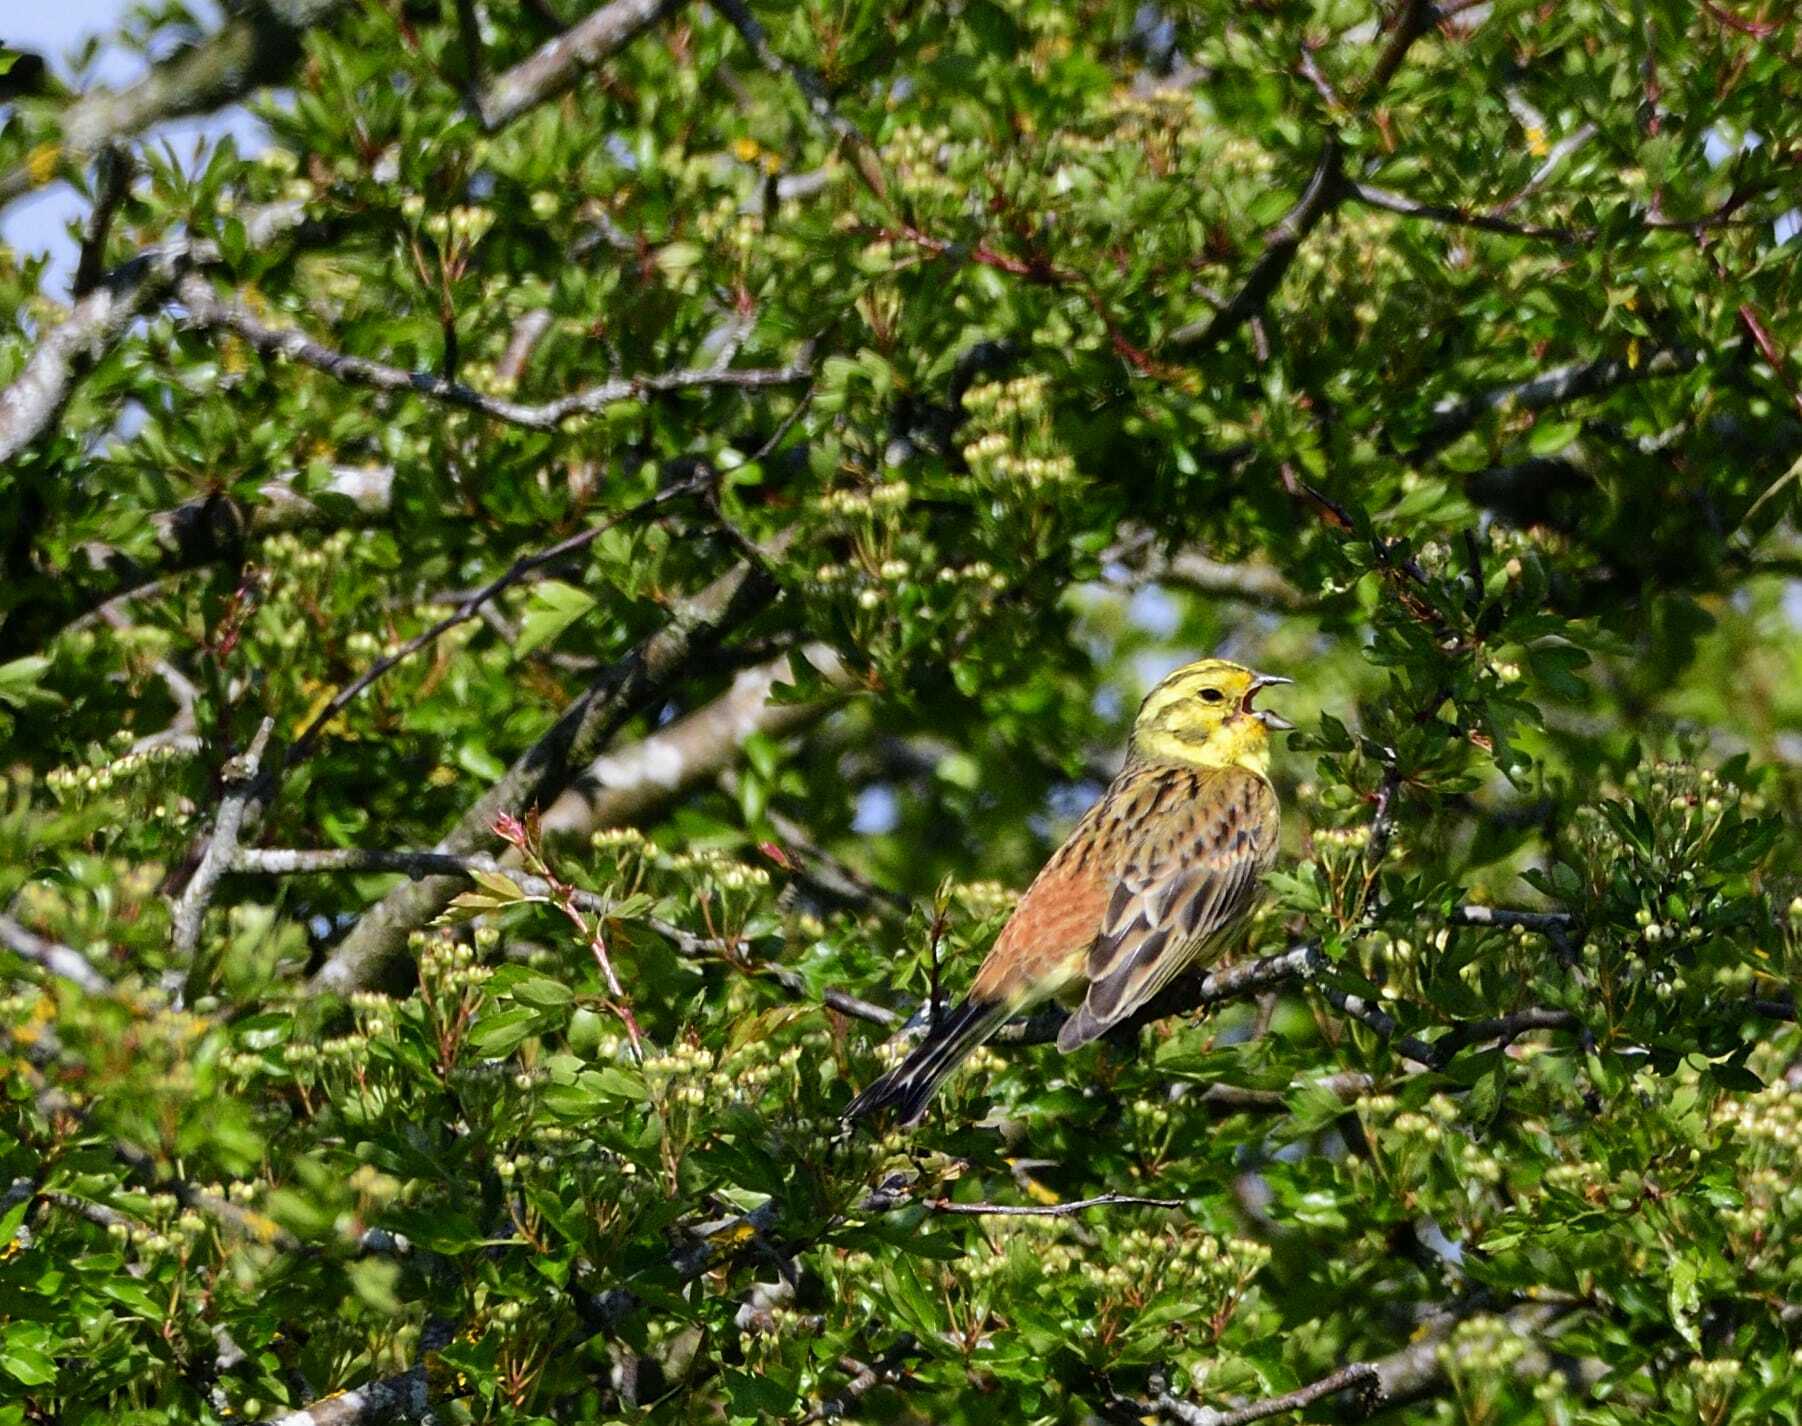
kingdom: Animalia
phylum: Chordata
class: Aves
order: Passeriformes
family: Emberizidae
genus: Emberiza
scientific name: Emberiza citrinella
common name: Yellowhammer
